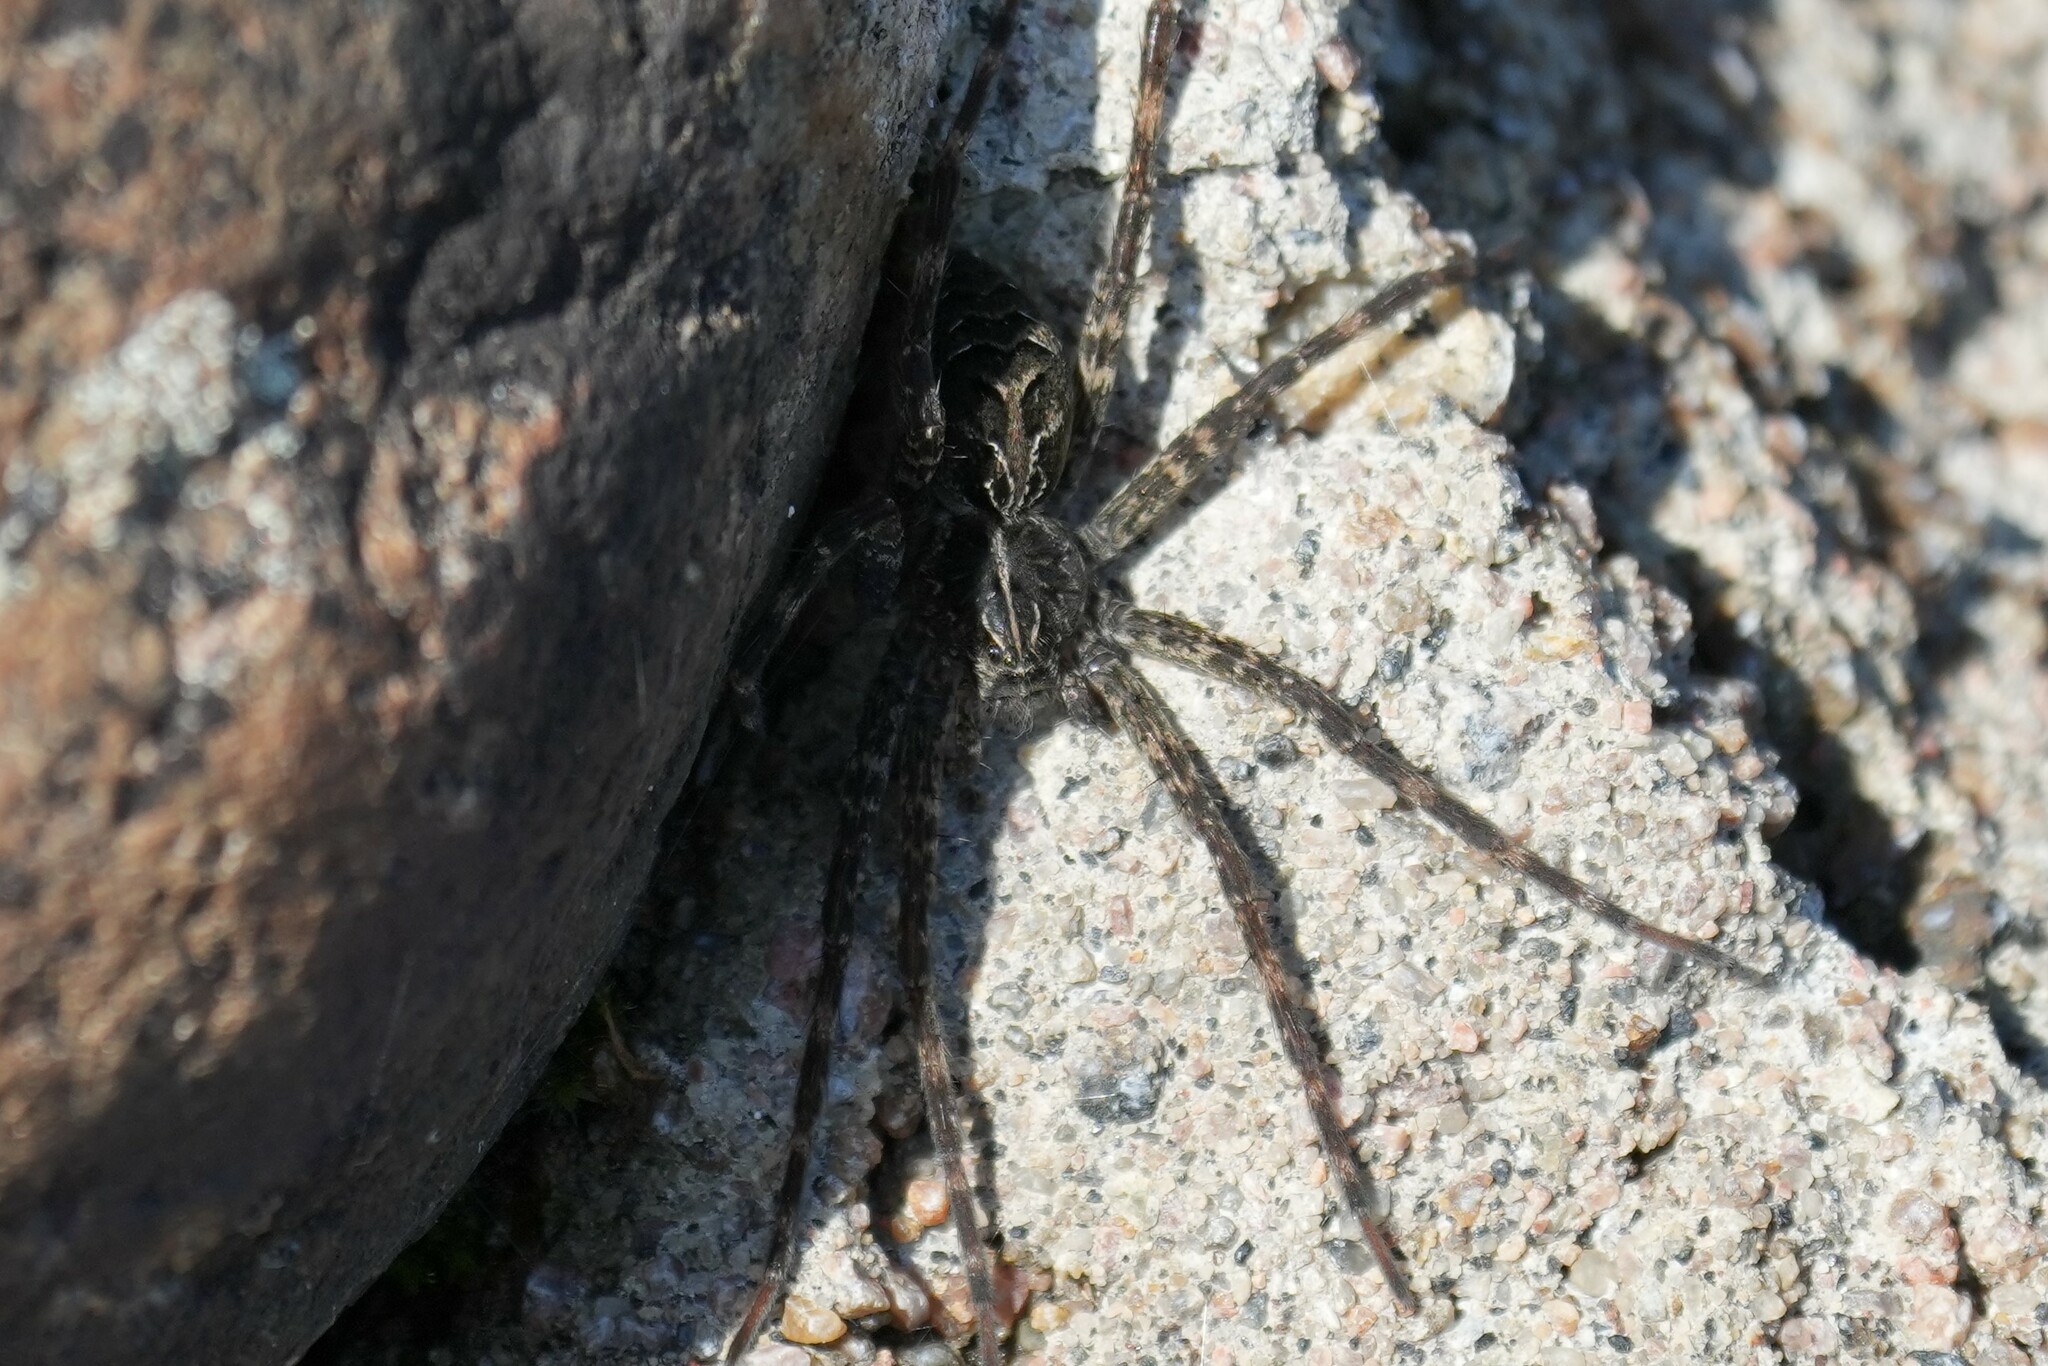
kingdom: Animalia
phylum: Arthropoda
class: Arachnida
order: Araneae
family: Pisauridae
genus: Dolomedes
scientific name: Dolomedes scriptus
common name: Striped fishing spider
